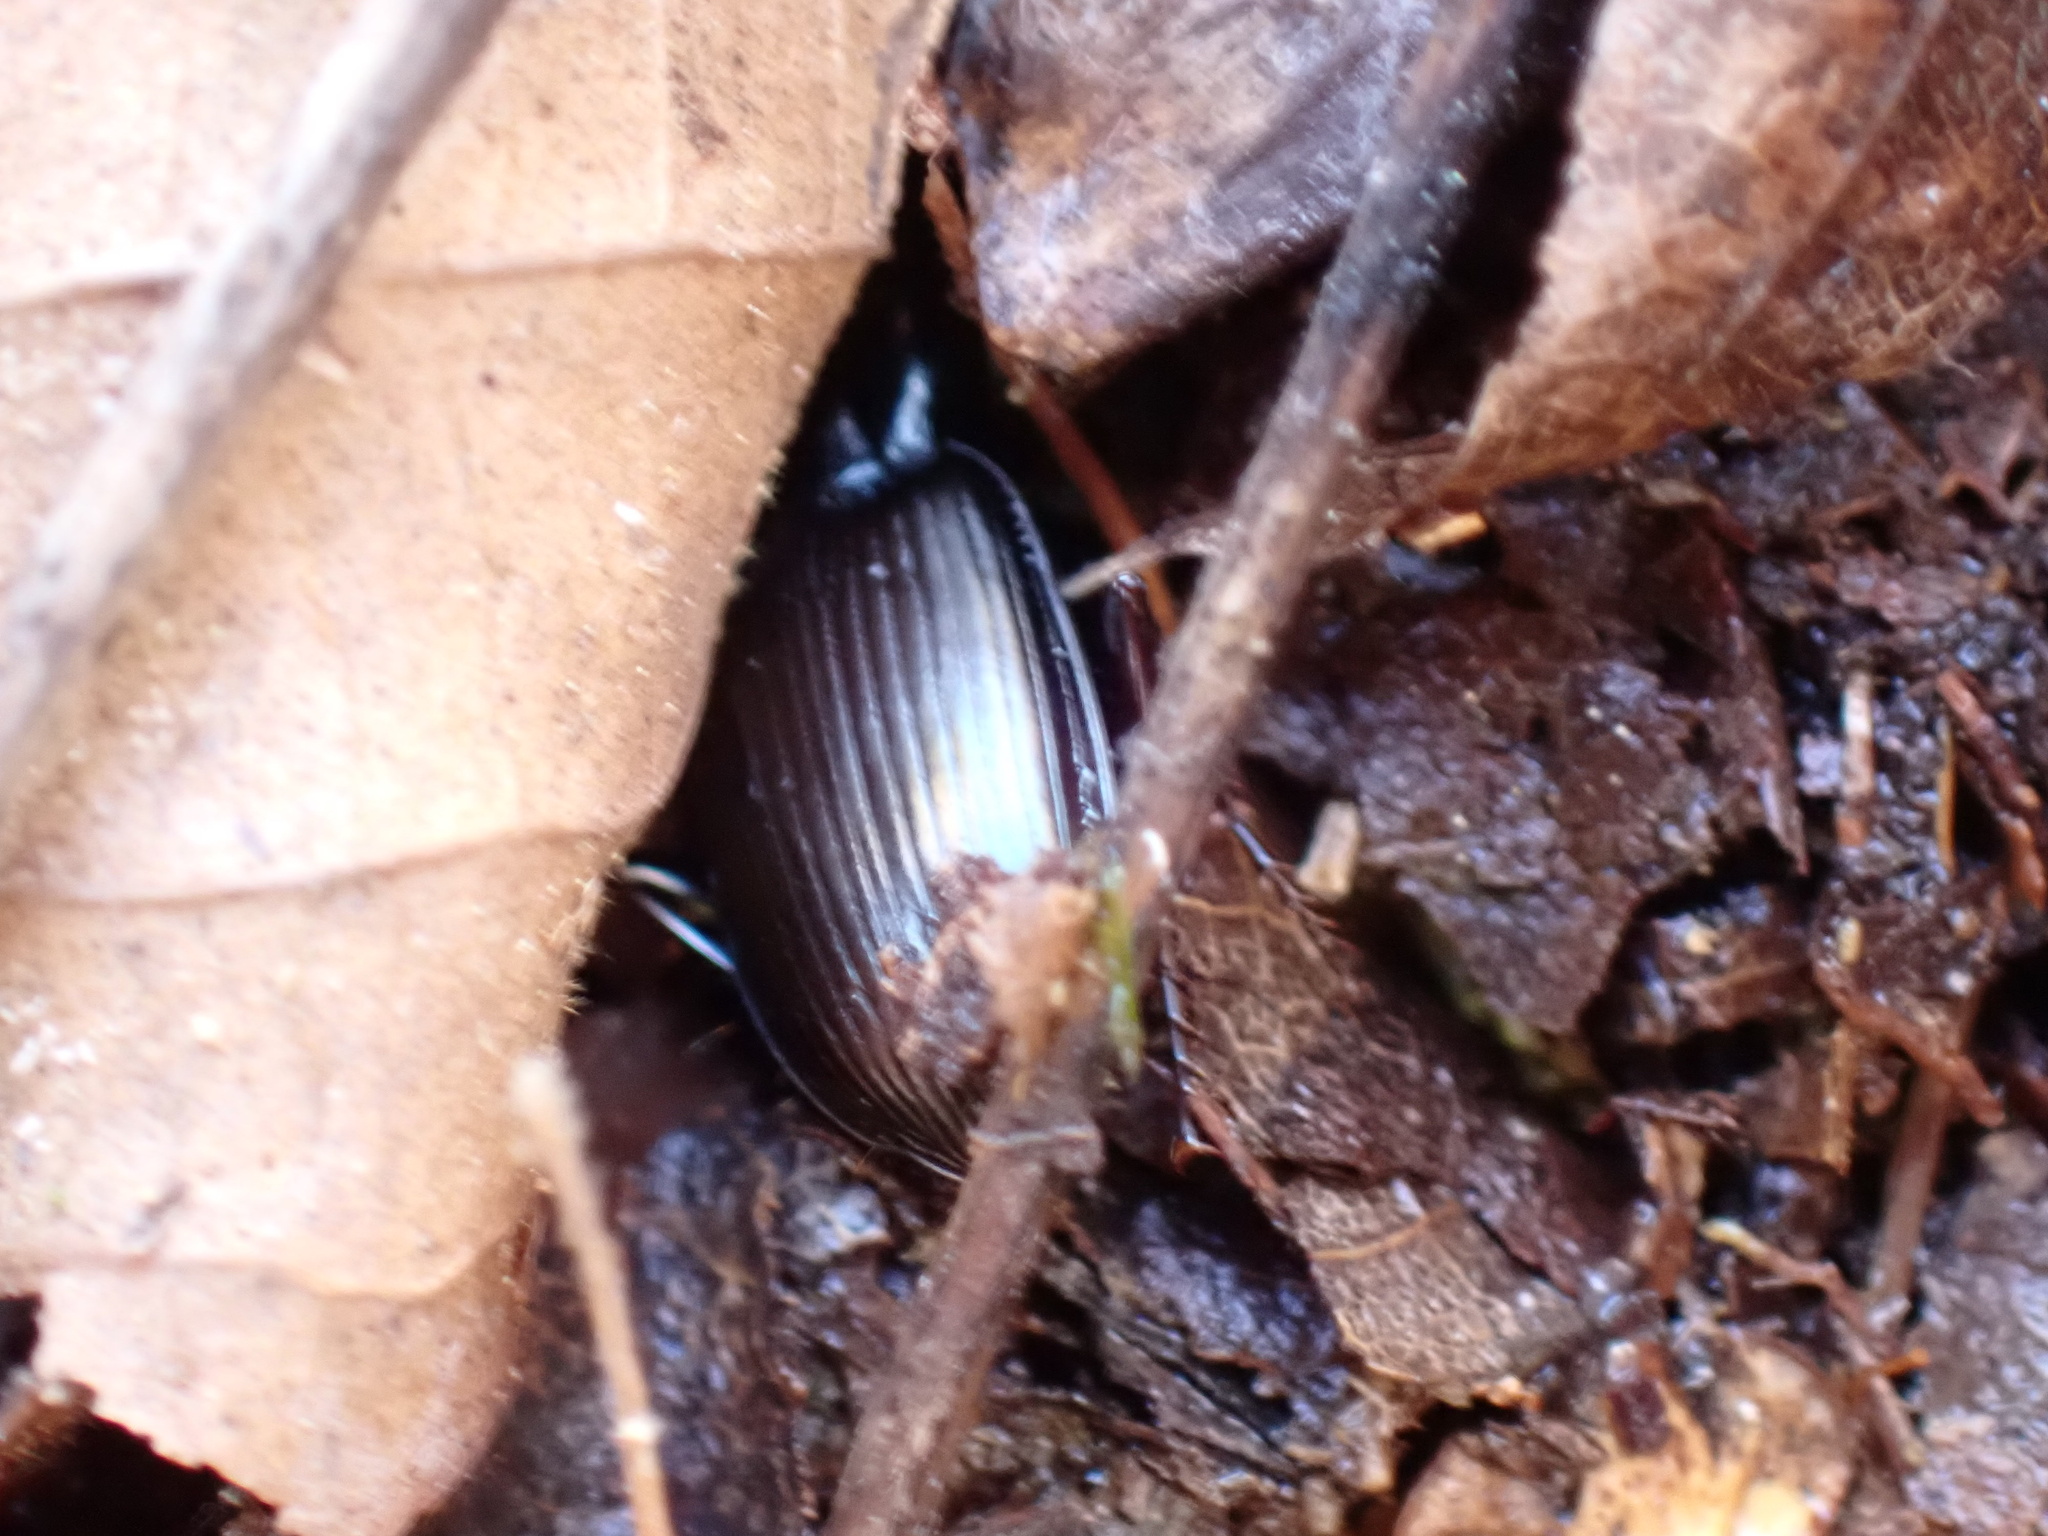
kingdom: Animalia
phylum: Arthropoda
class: Insecta
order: Coleoptera
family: Carabidae
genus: Gastrellarius
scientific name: Gastrellarius honestus
